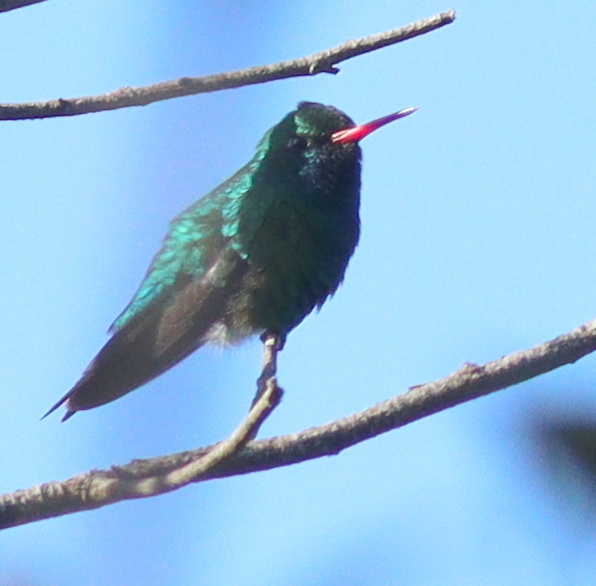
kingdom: Animalia
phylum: Chordata
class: Aves
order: Apodiformes
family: Trochilidae
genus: Chlorostilbon
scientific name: Chlorostilbon lucidus
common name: Glittering-bellied emerald
